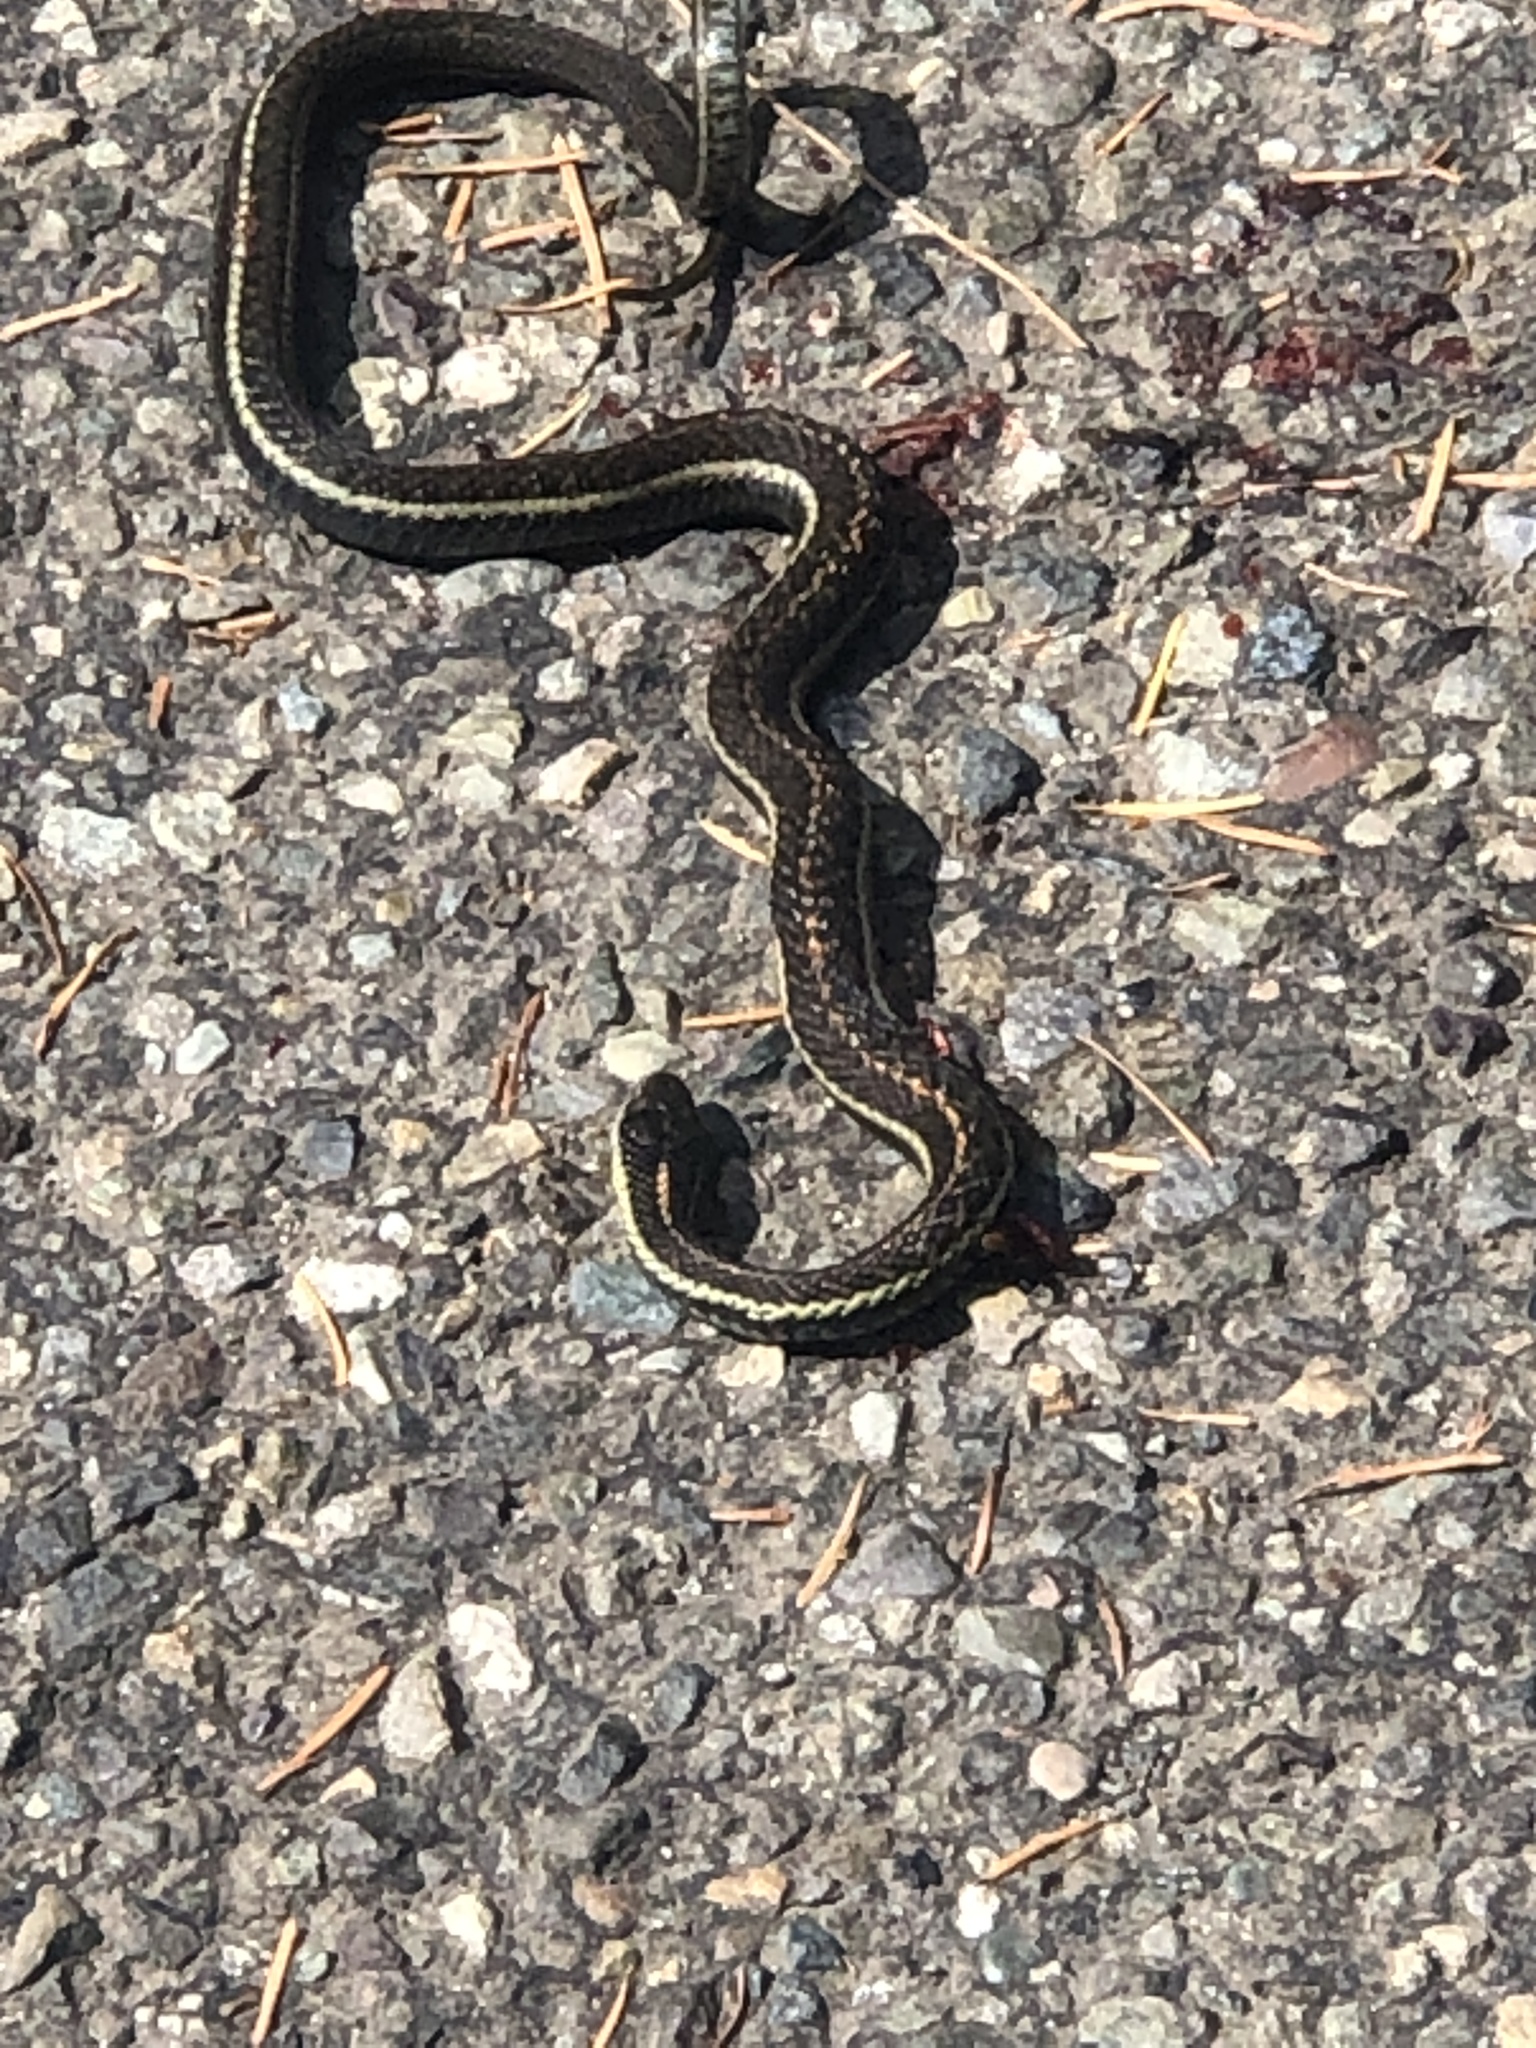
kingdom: Animalia
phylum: Chordata
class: Squamata
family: Colubridae
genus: Thamnophis
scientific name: Thamnophis ordinoides
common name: Northwestern garter snake
